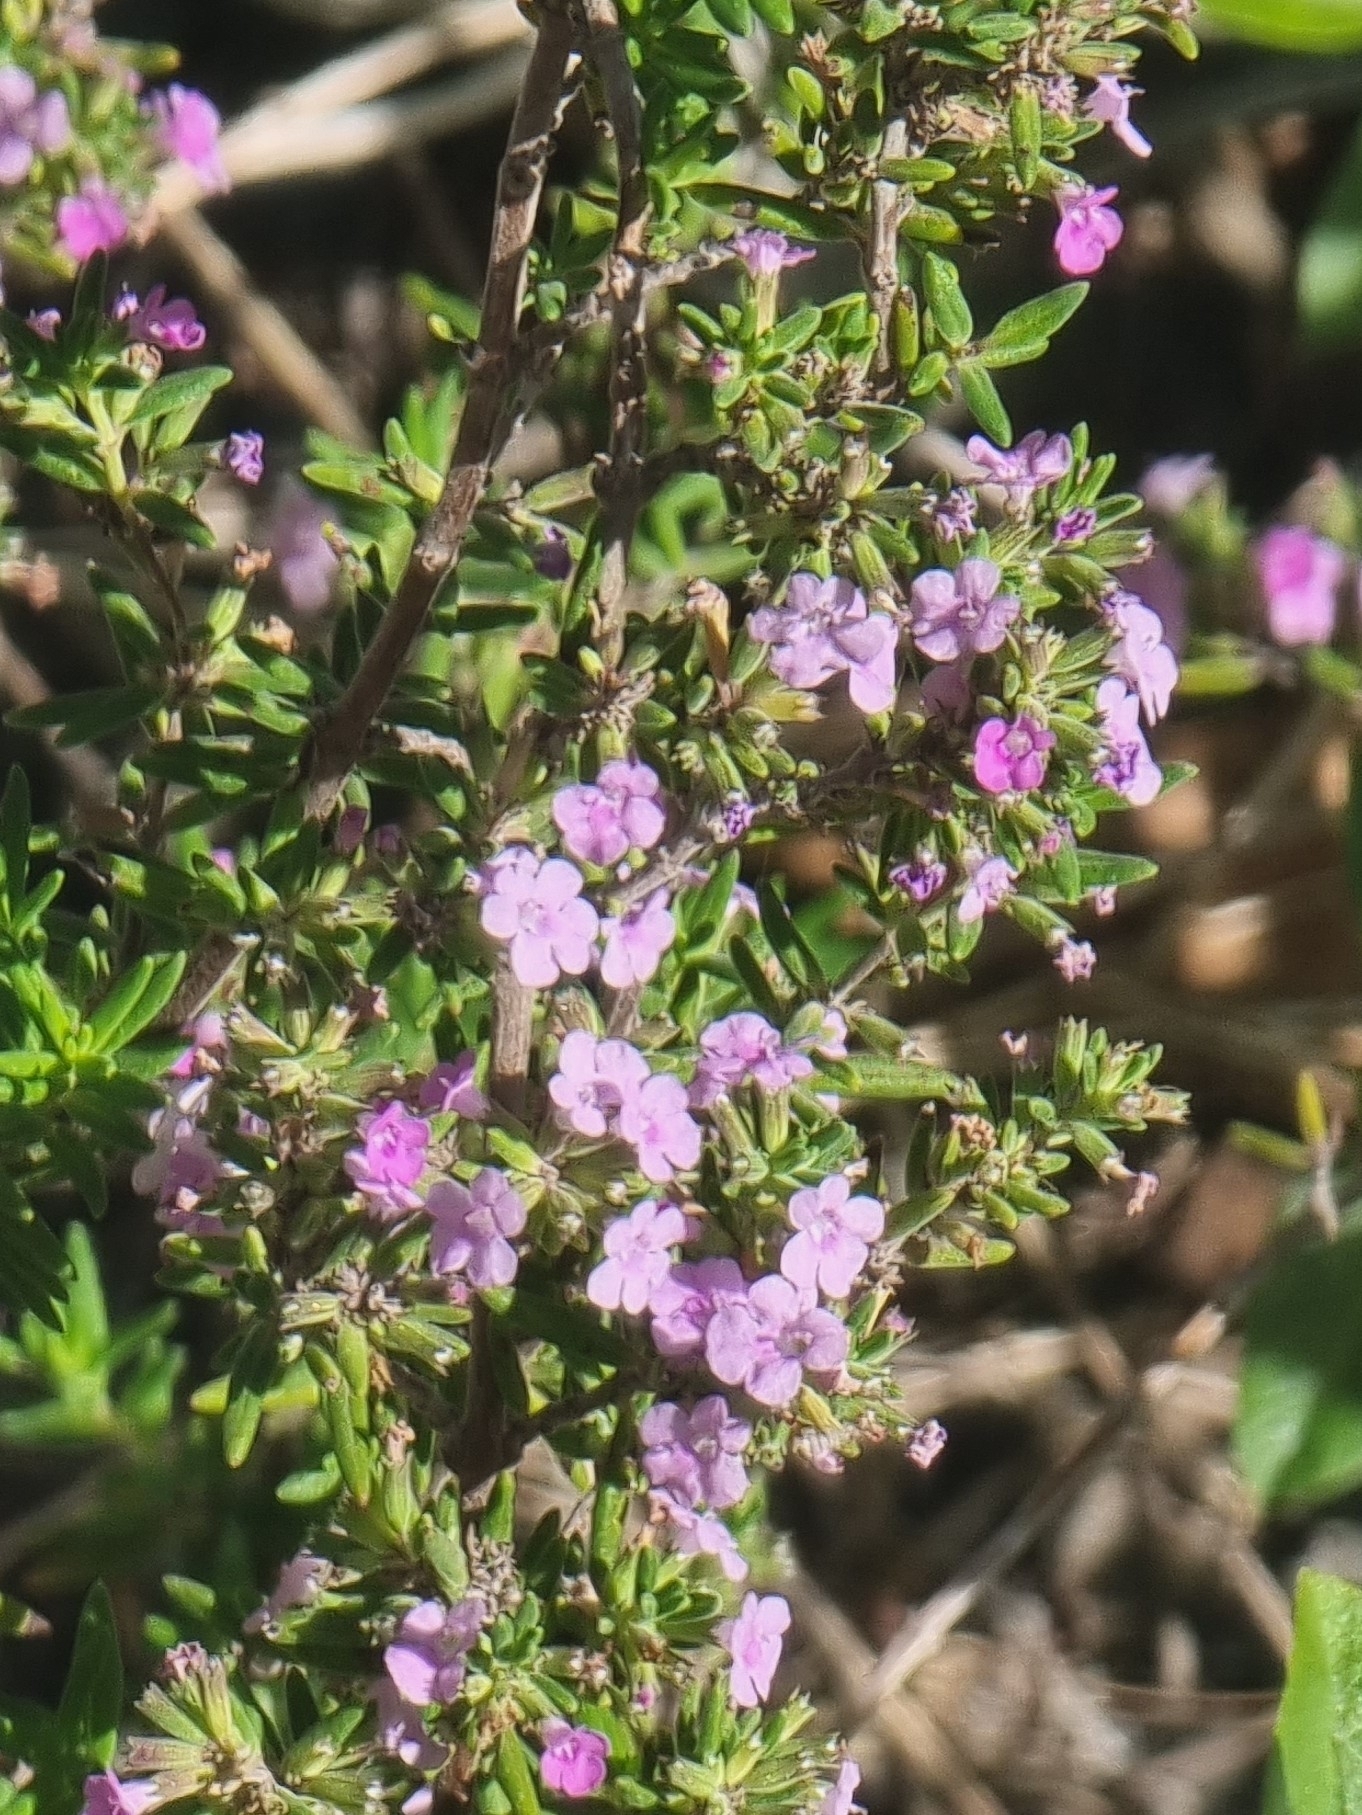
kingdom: Plantae
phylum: Tracheophyta
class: Magnoliopsida
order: Lamiales
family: Lamiaceae
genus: Micromeria
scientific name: Micromeria maderensis
